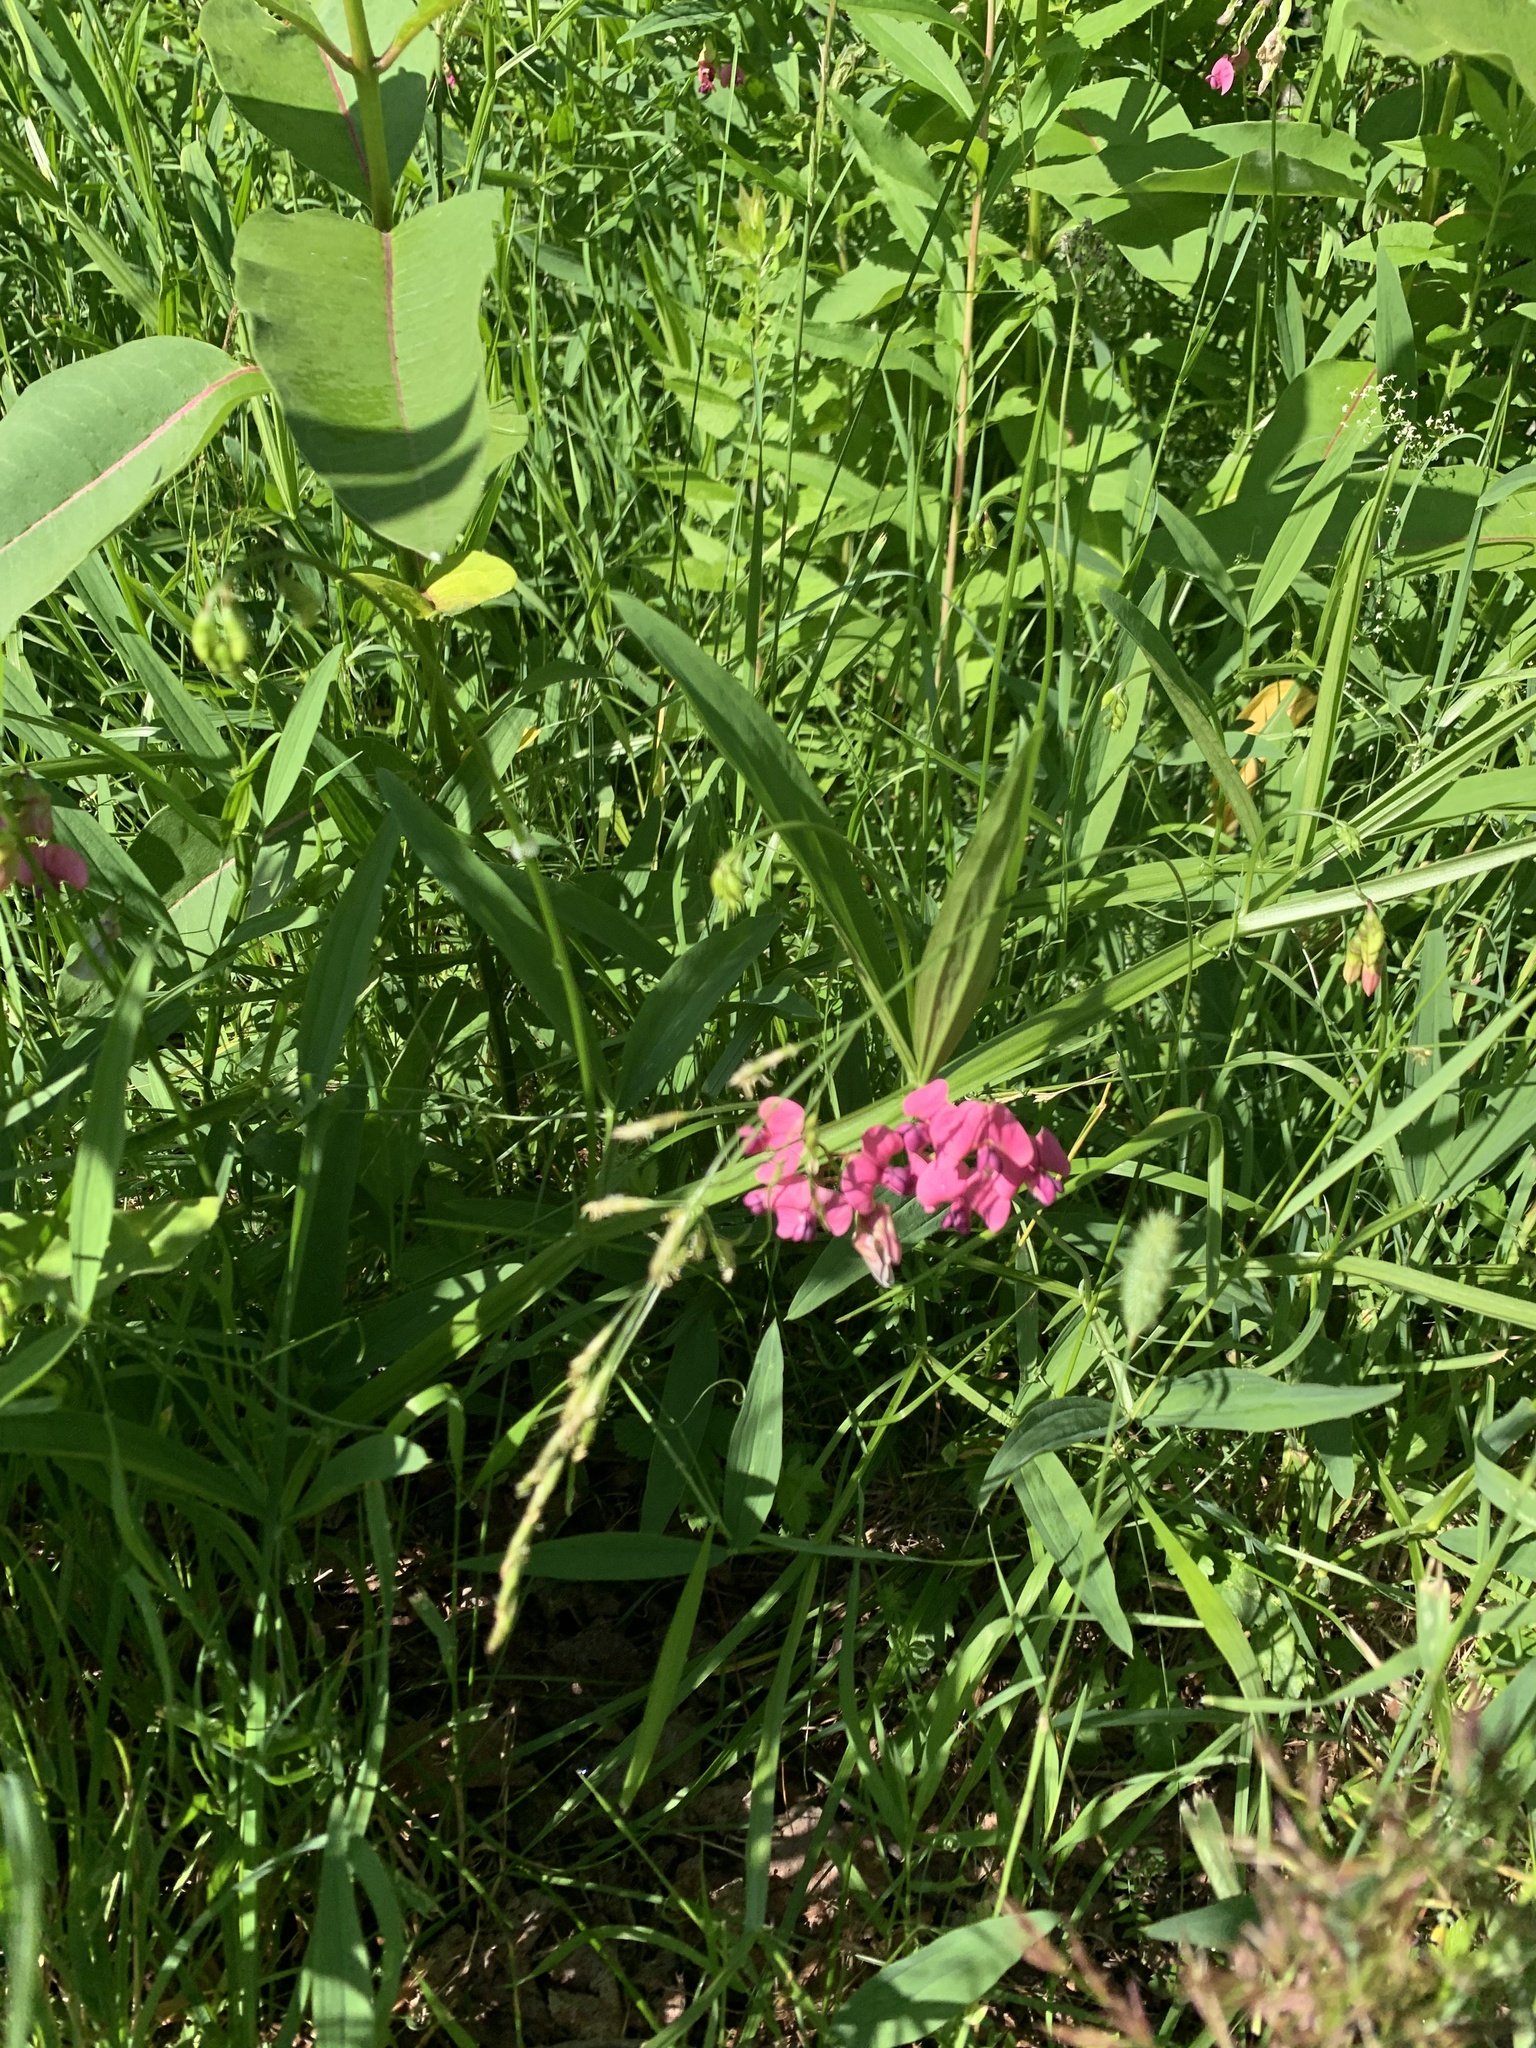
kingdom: Plantae
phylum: Tracheophyta
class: Magnoliopsida
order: Fabales
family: Fabaceae
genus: Lathyrus
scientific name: Lathyrus sylvestris
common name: Flat pea
